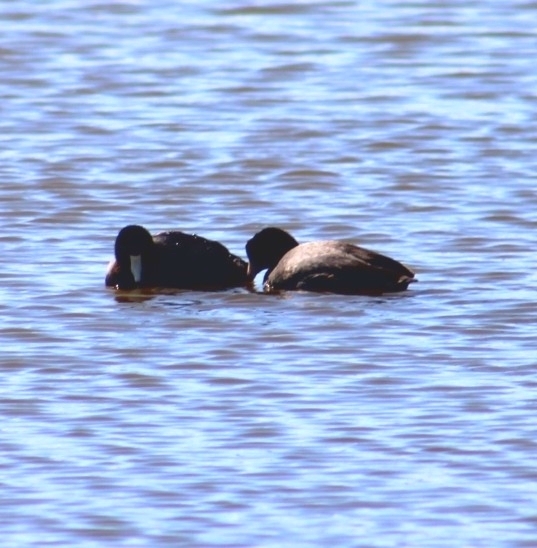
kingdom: Animalia
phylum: Chordata
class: Aves
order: Gruiformes
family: Rallidae
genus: Fulica
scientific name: Fulica americana
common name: American coot
